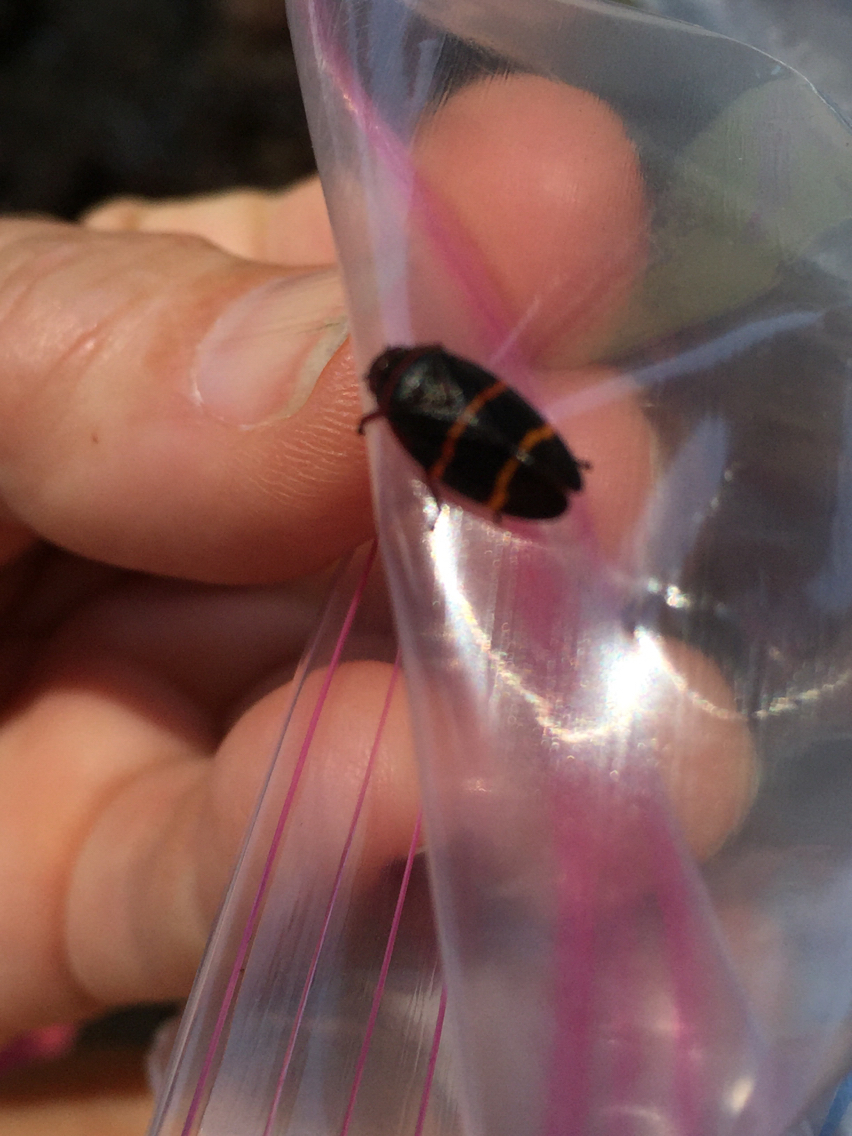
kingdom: Animalia
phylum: Arthropoda
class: Insecta
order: Hemiptera
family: Cercopidae
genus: Prosapia
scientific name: Prosapia bicincta
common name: Twolined spittlebug
